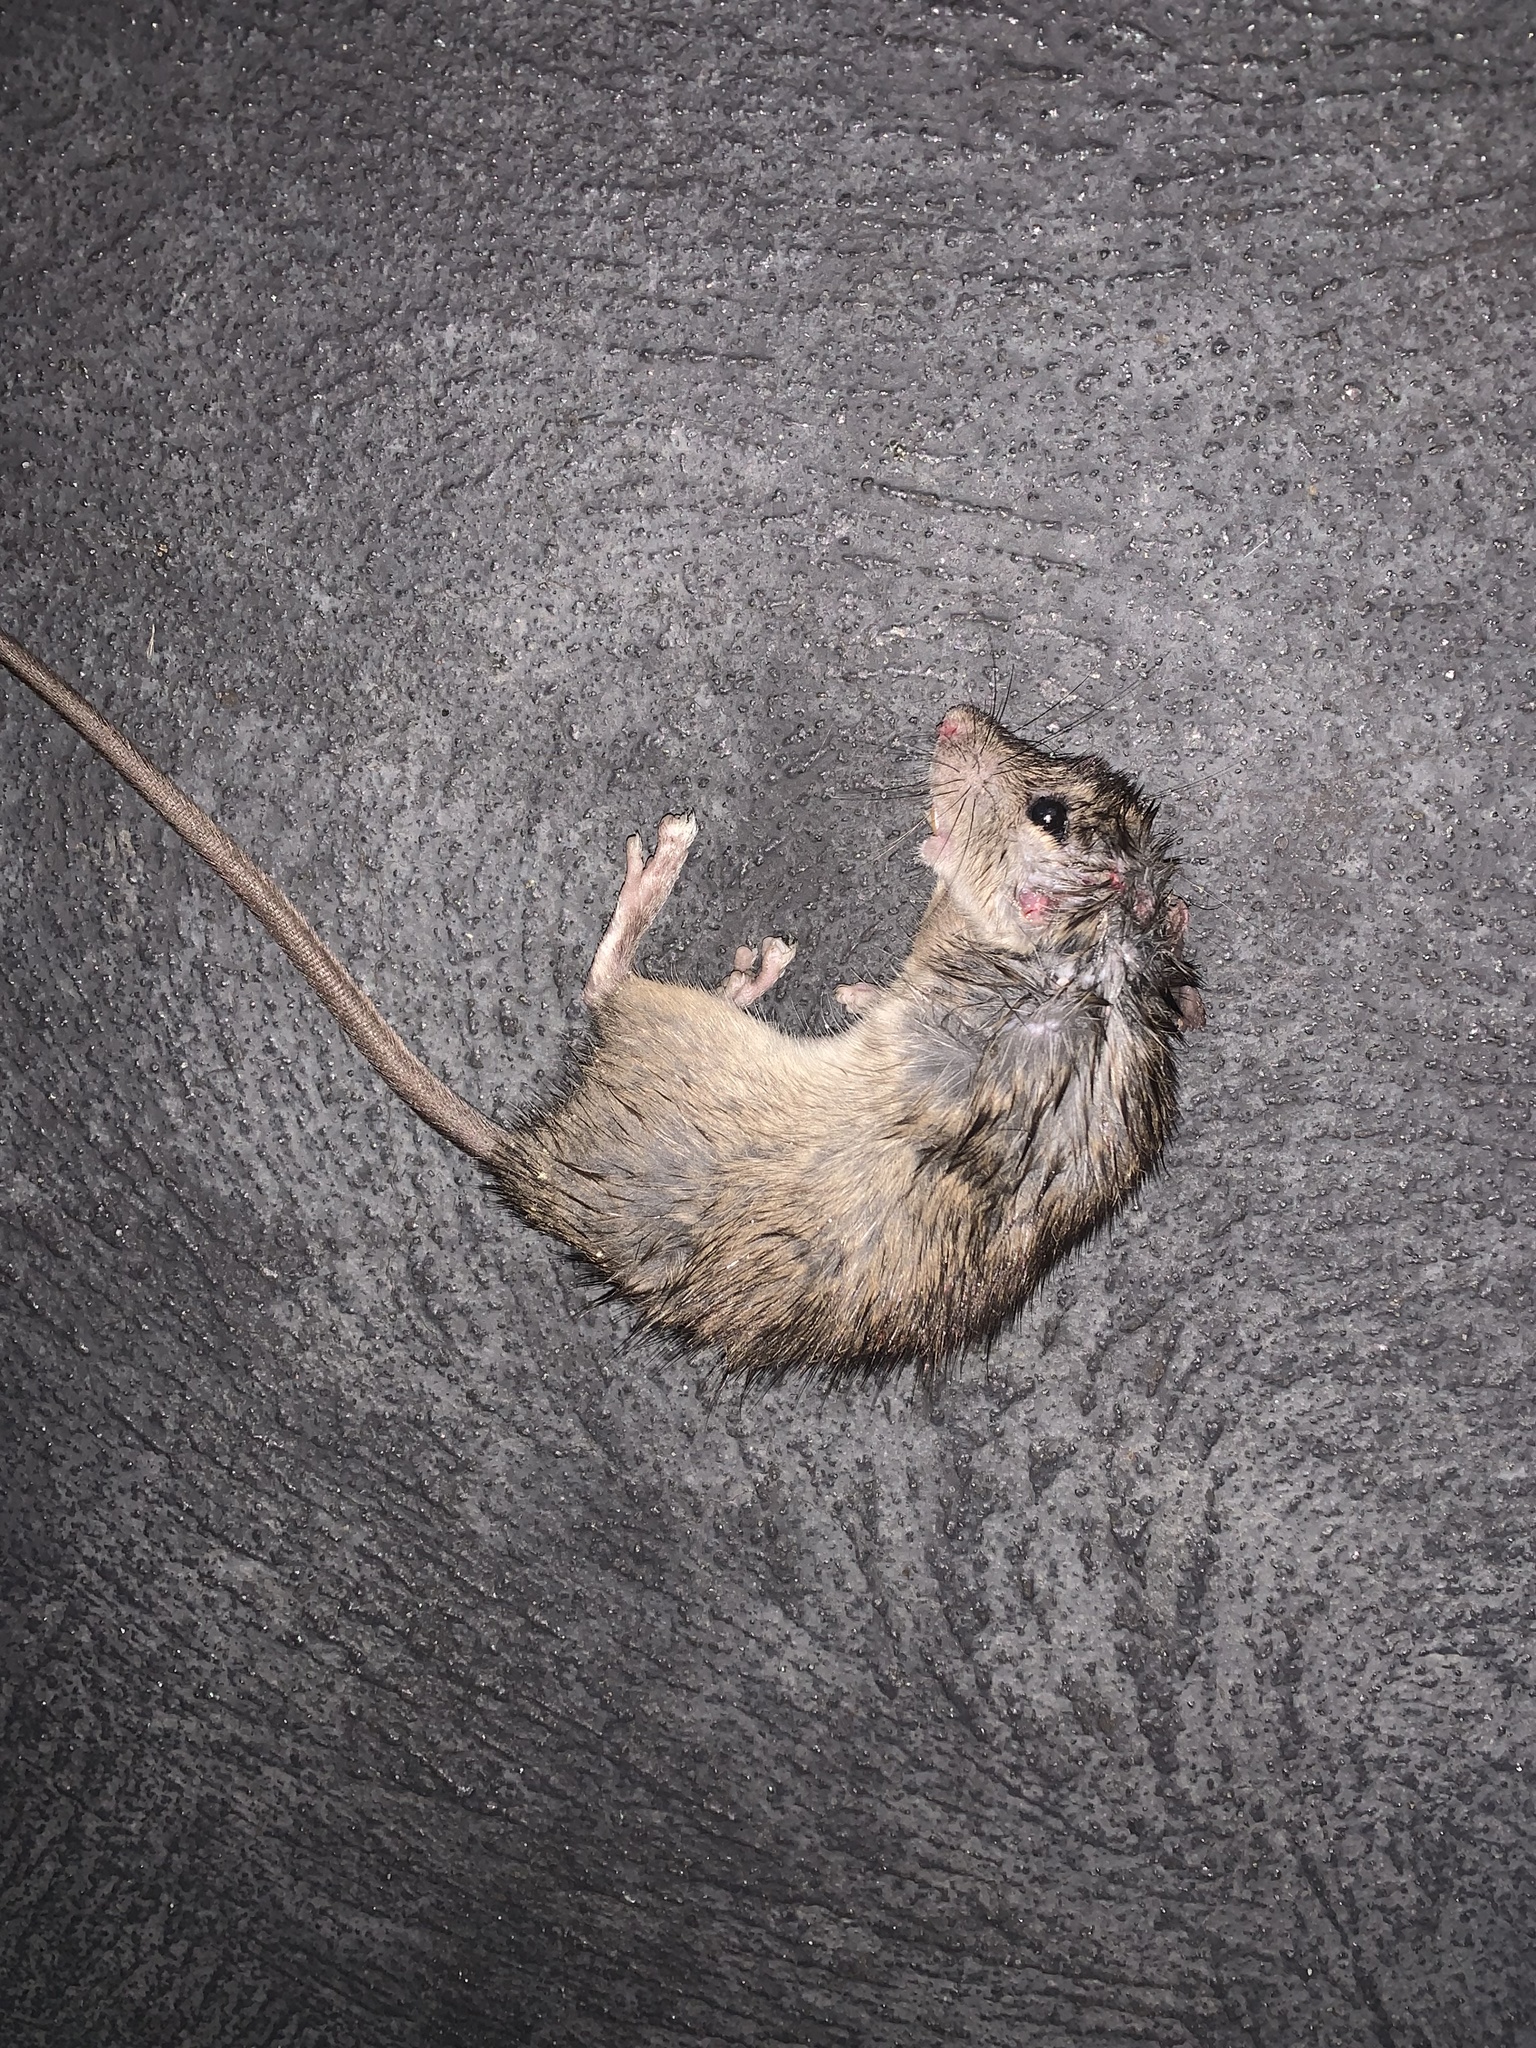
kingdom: Animalia
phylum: Chordata
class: Mammalia
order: Rodentia
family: Muridae
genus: Mus
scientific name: Mus musculus
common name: House mouse
